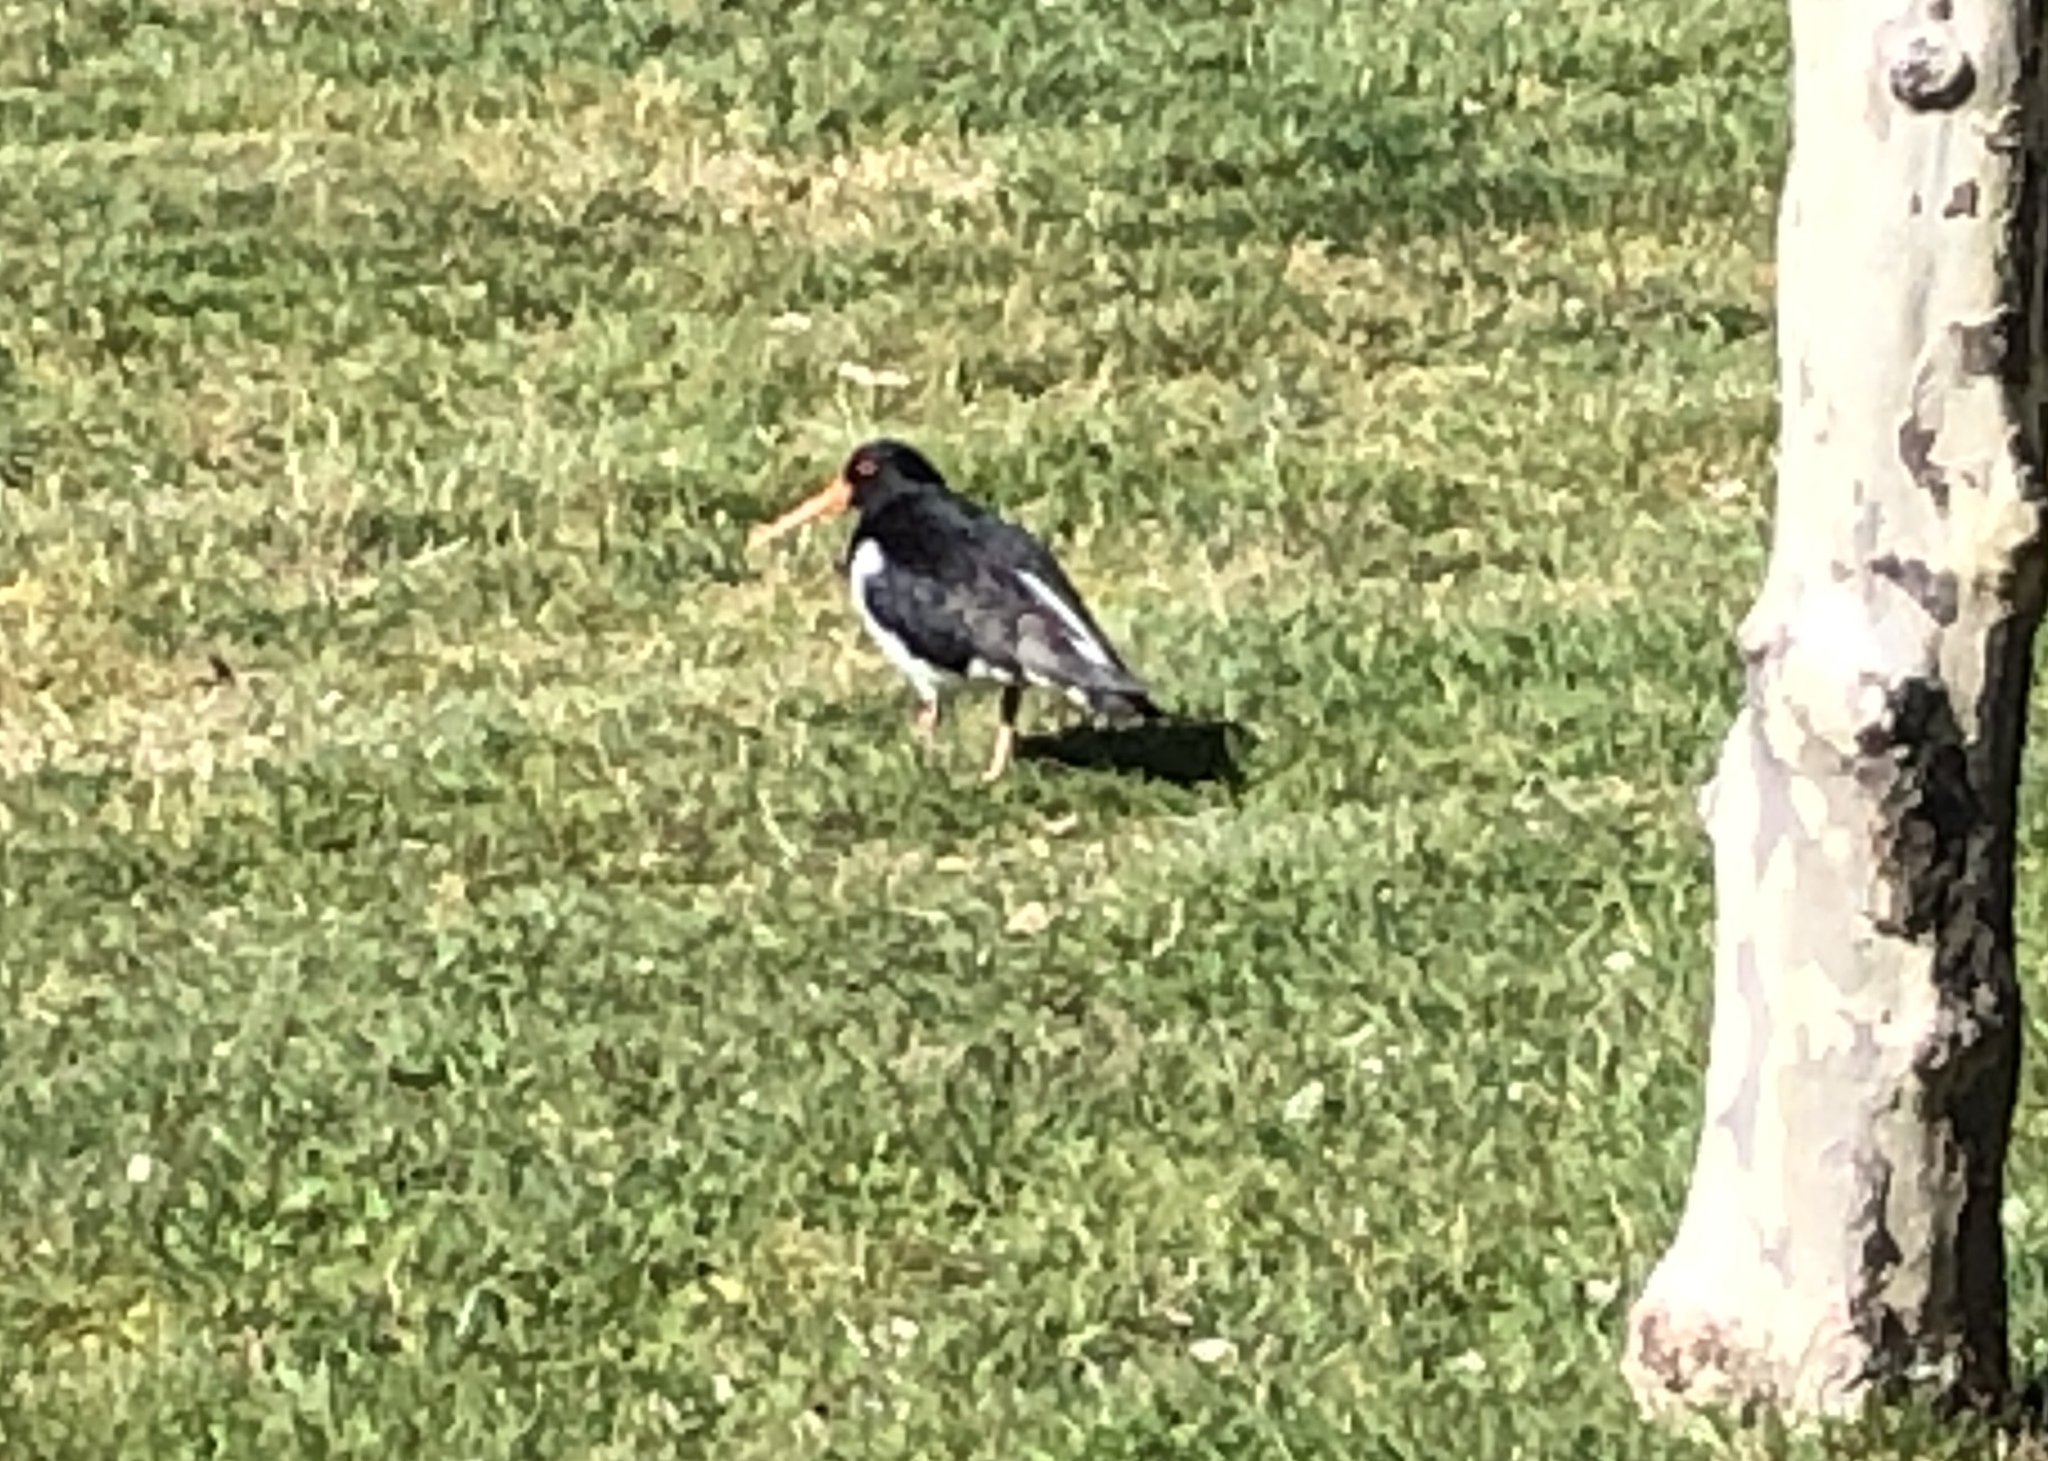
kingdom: Animalia
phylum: Chordata
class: Aves
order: Charadriiformes
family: Haematopodidae
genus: Haematopus
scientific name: Haematopus finschi
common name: South island oystercatcher
